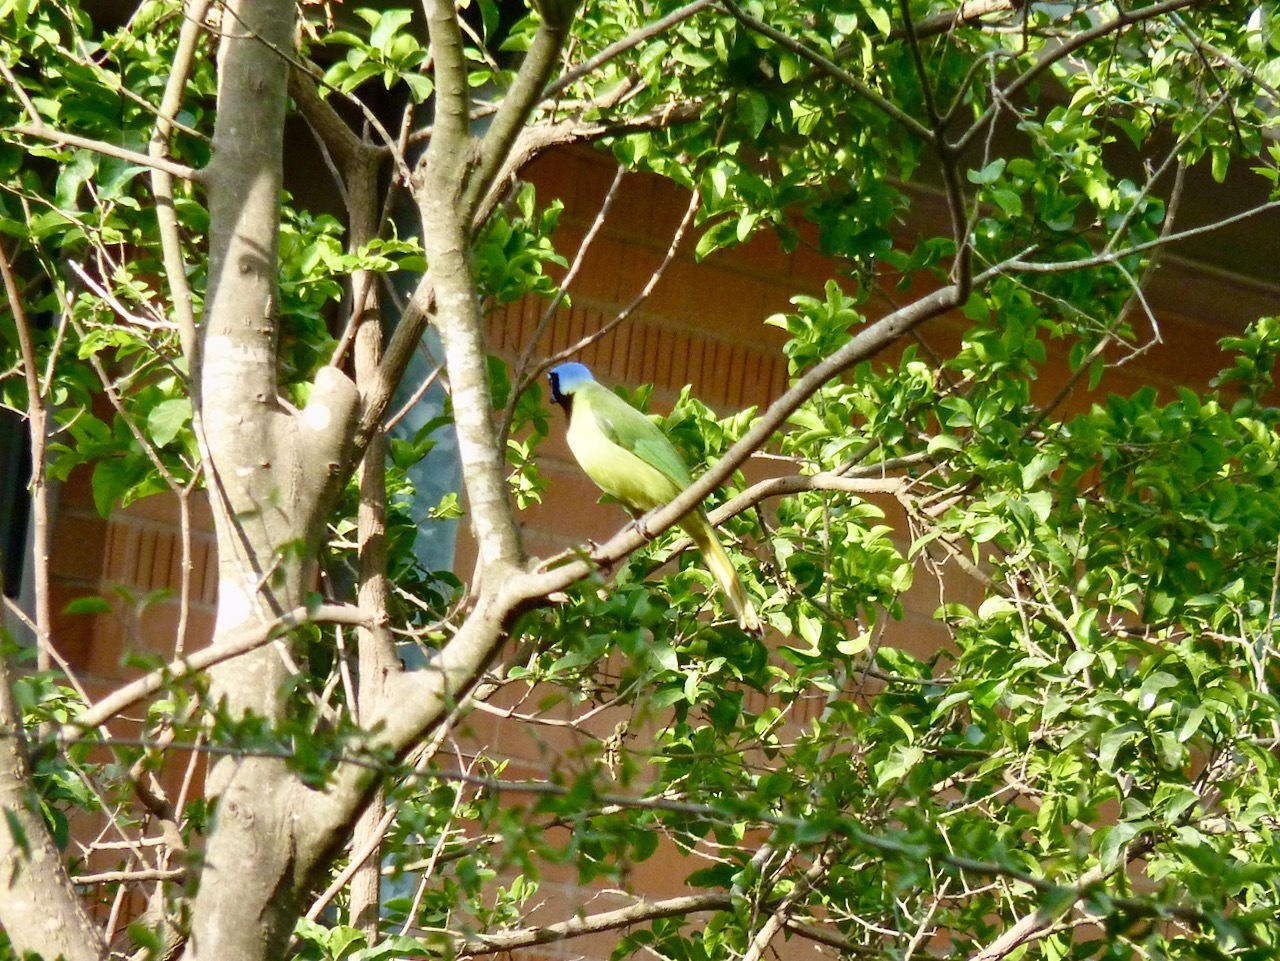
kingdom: Animalia
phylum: Chordata
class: Aves
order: Passeriformes
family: Corvidae
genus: Cyanocorax
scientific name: Cyanocorax yncas
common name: Green jay
